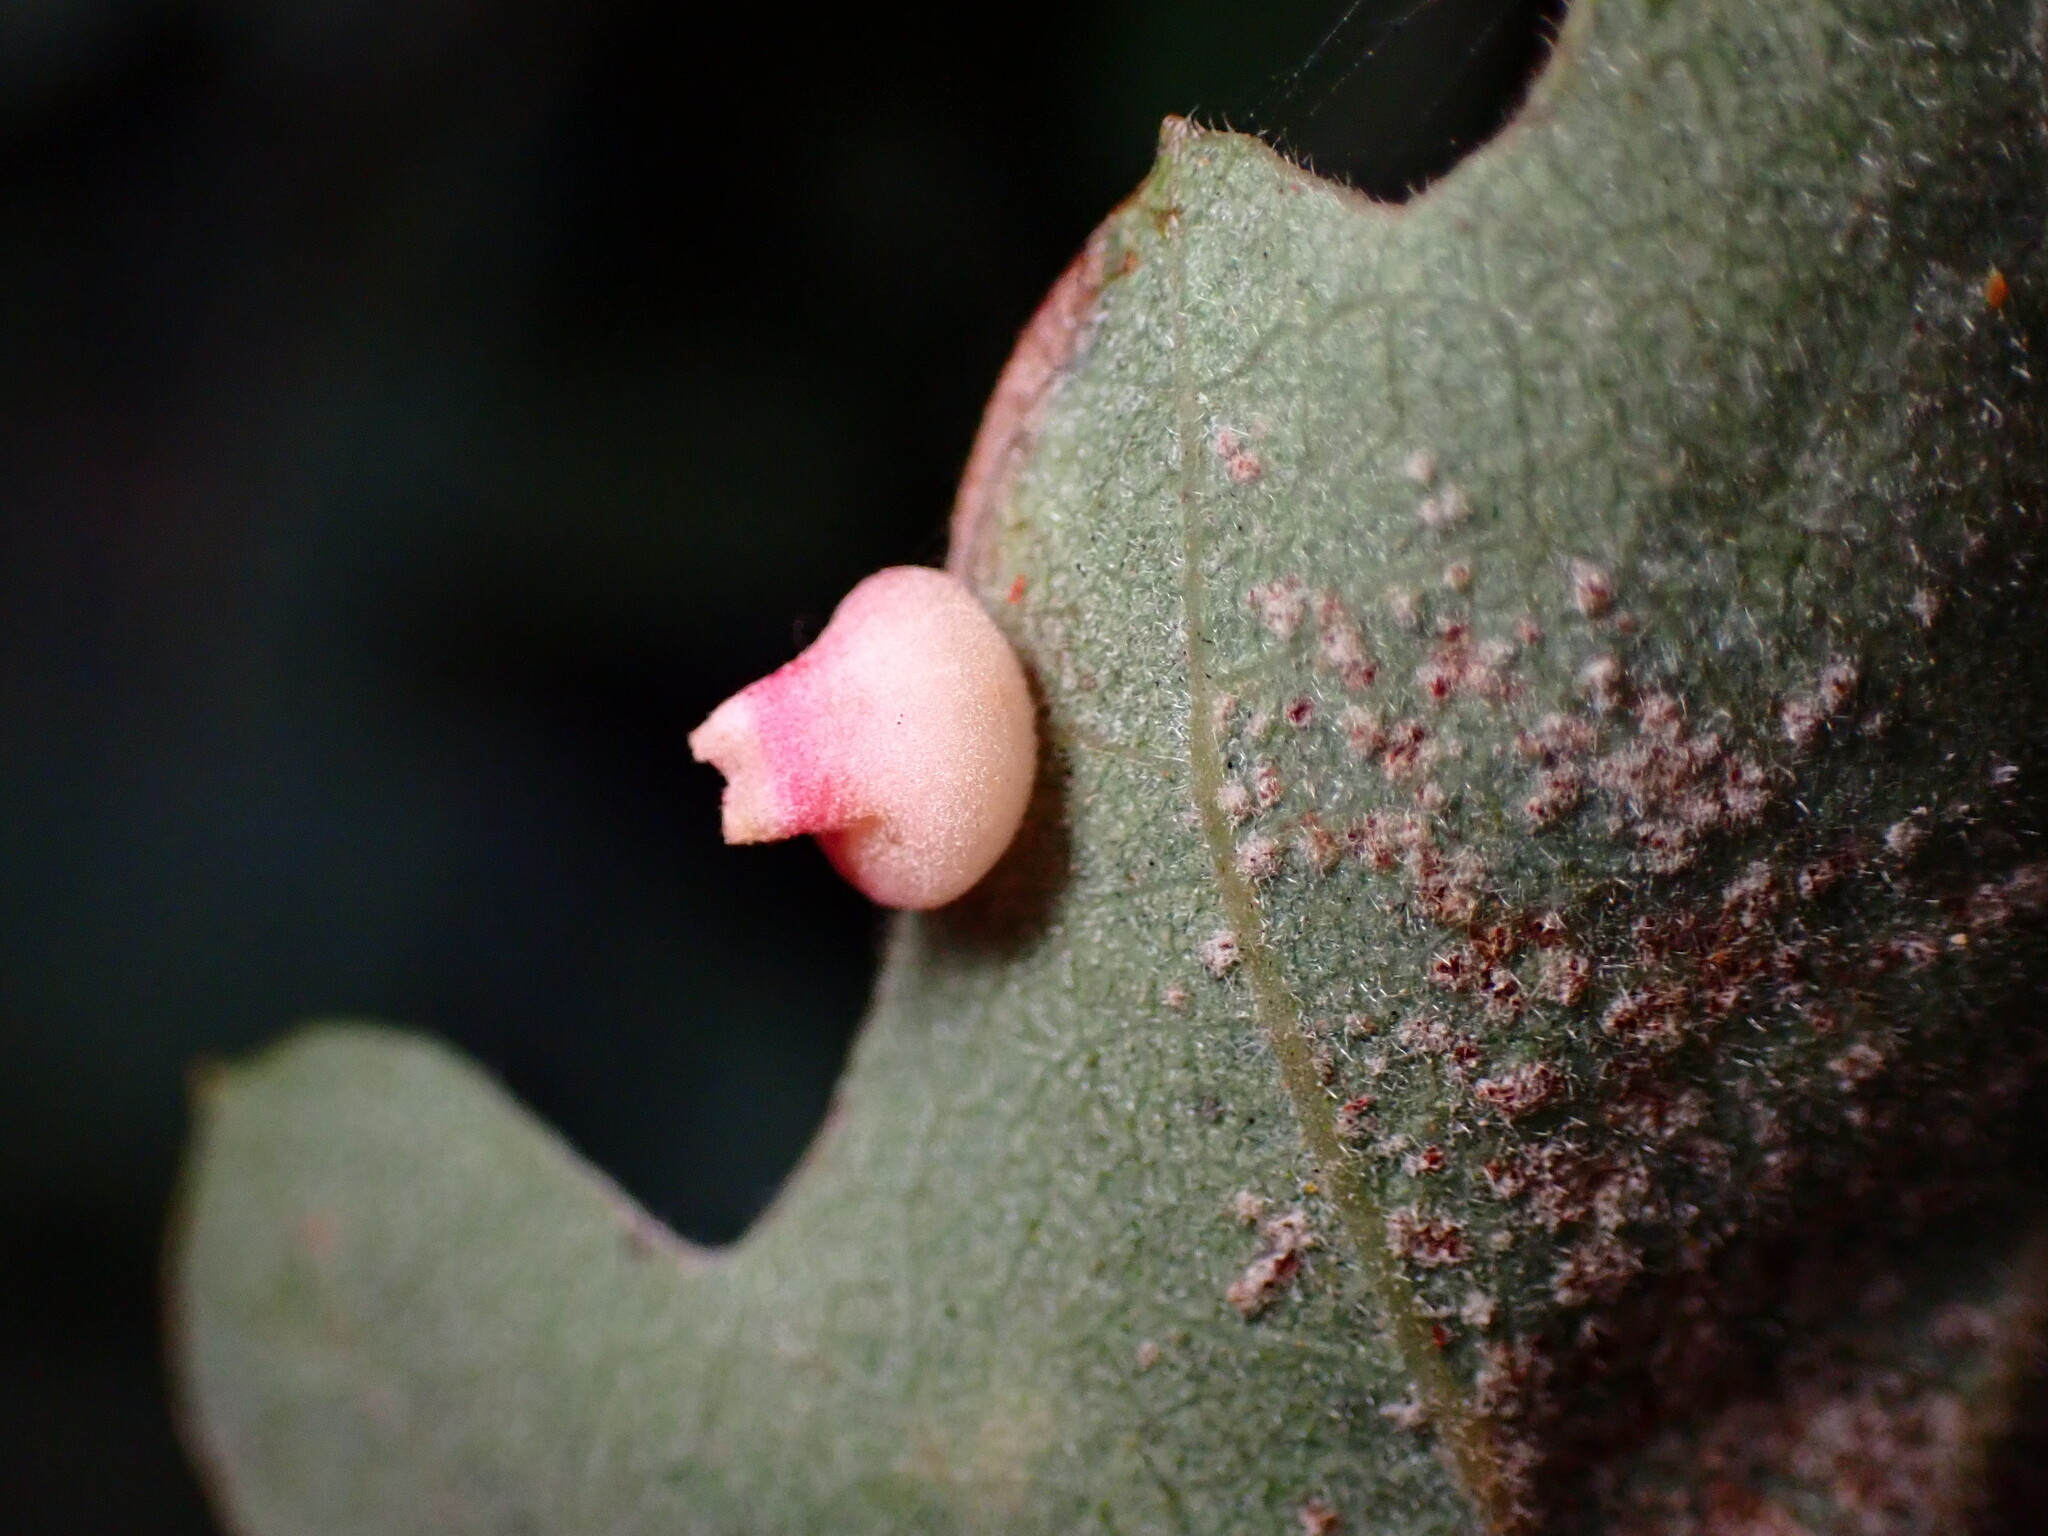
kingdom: Animalia
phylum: Arthropoda
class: Insecta
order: Hymenoptera
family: Cynipidae
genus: Andricus
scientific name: Andricus
